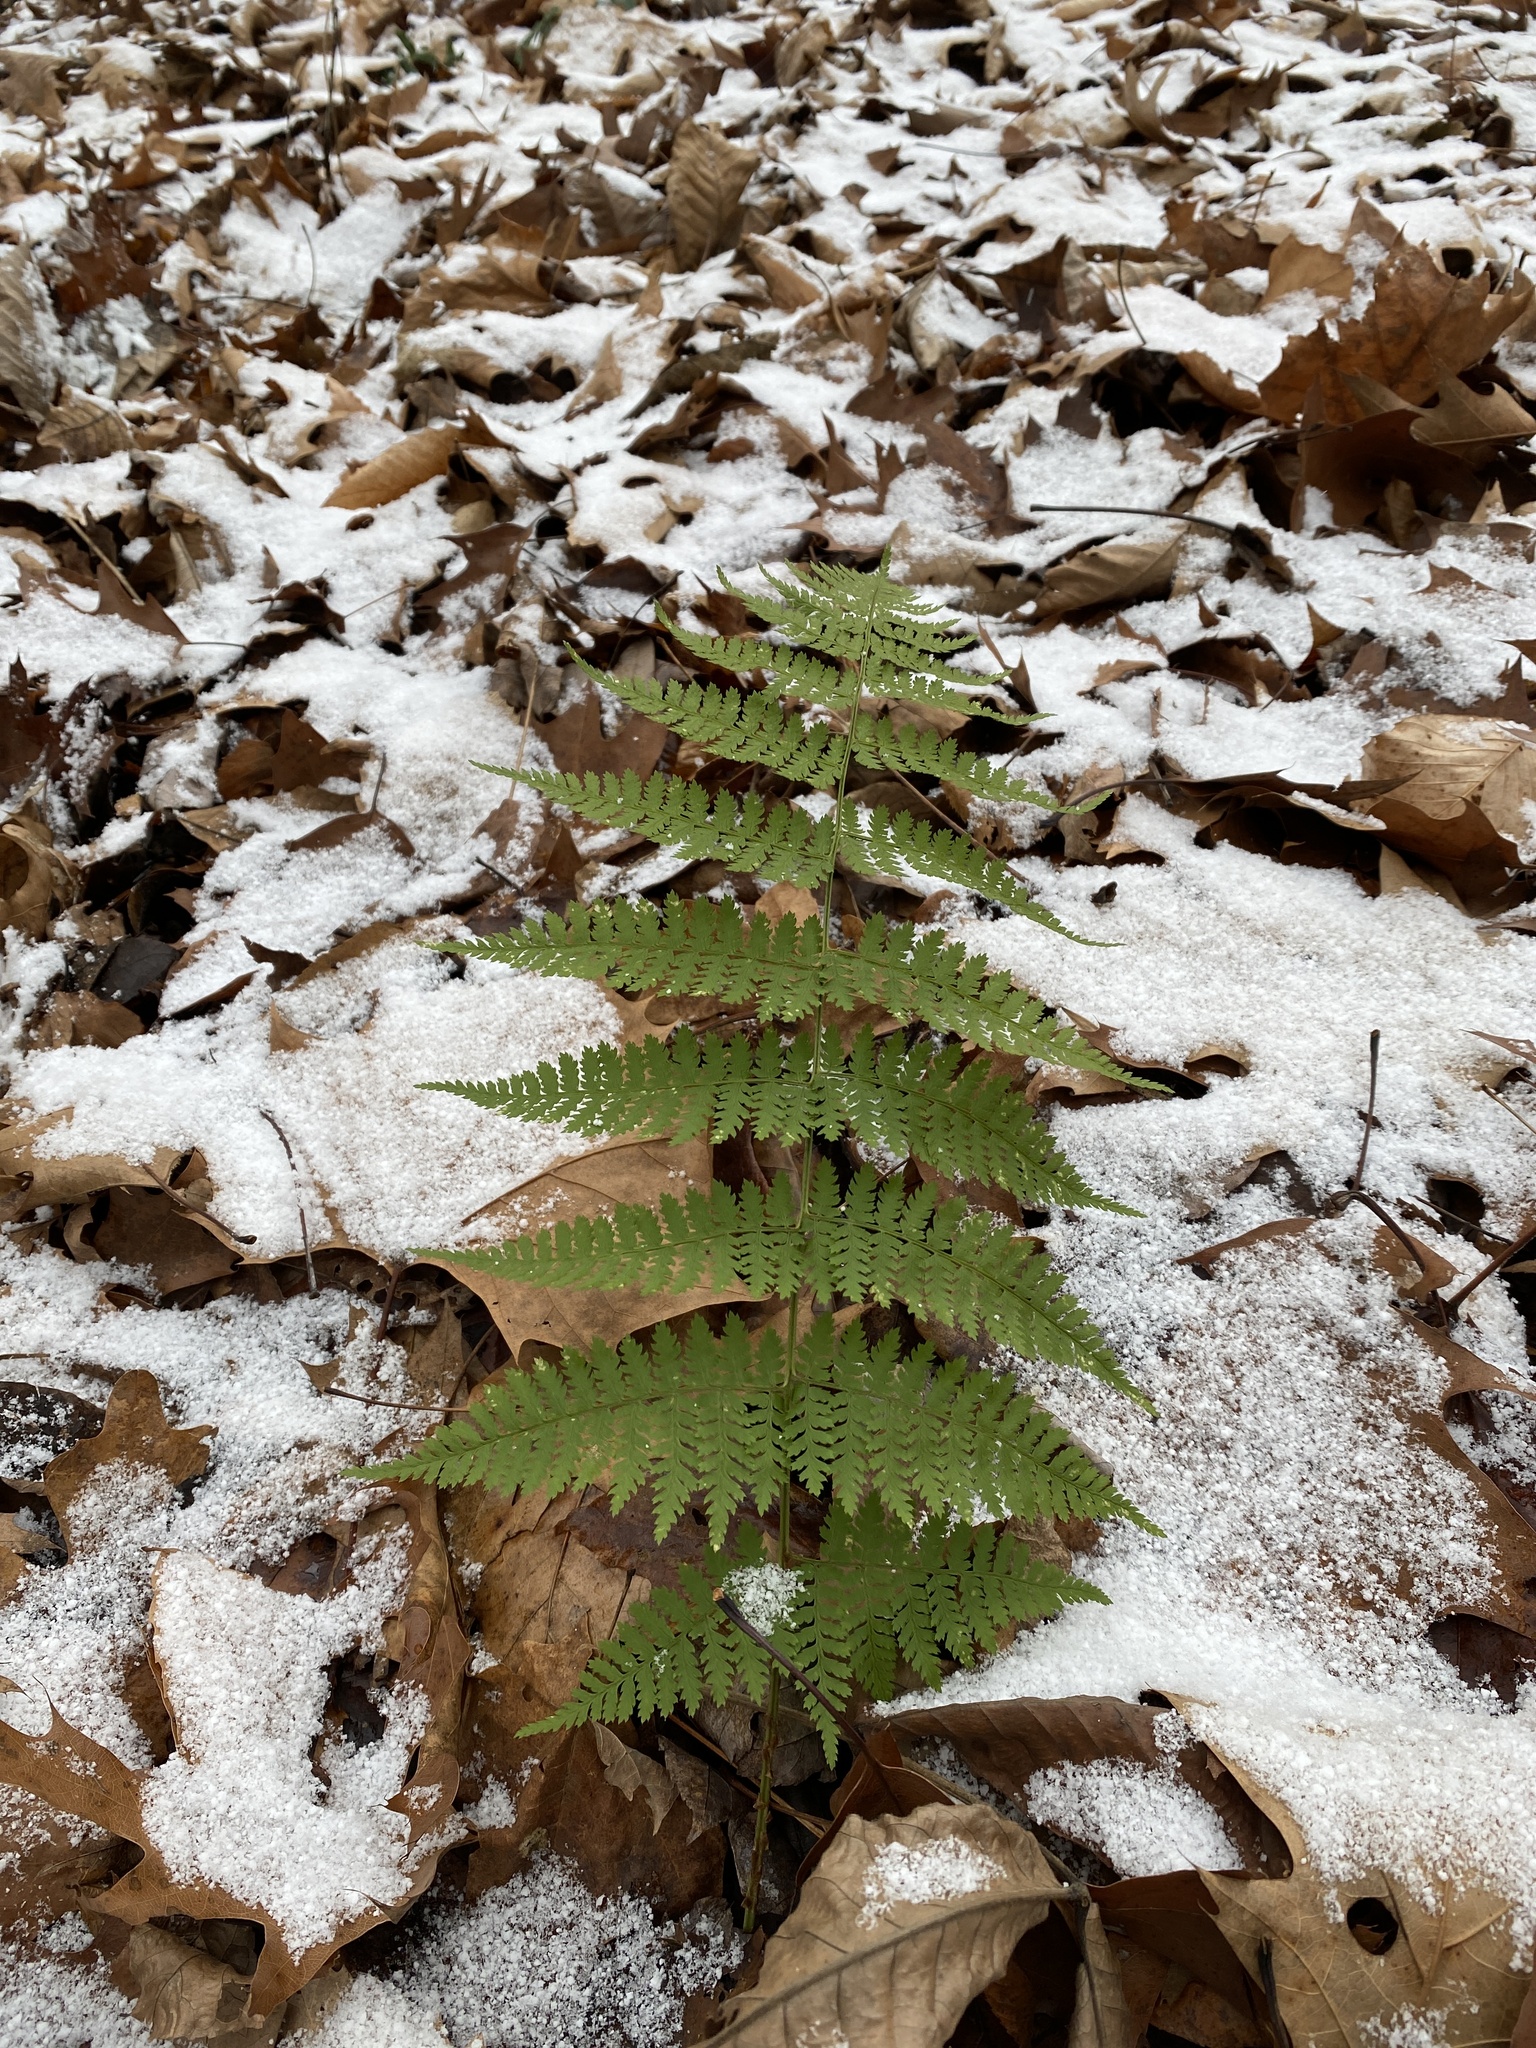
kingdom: Plantae
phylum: Tracheophyta
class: Polypodiopsida
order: Polypodiales
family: Dryopteridaceae
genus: Dryopteris
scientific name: Dryopteris intermedia
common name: Evergreen wood fern
